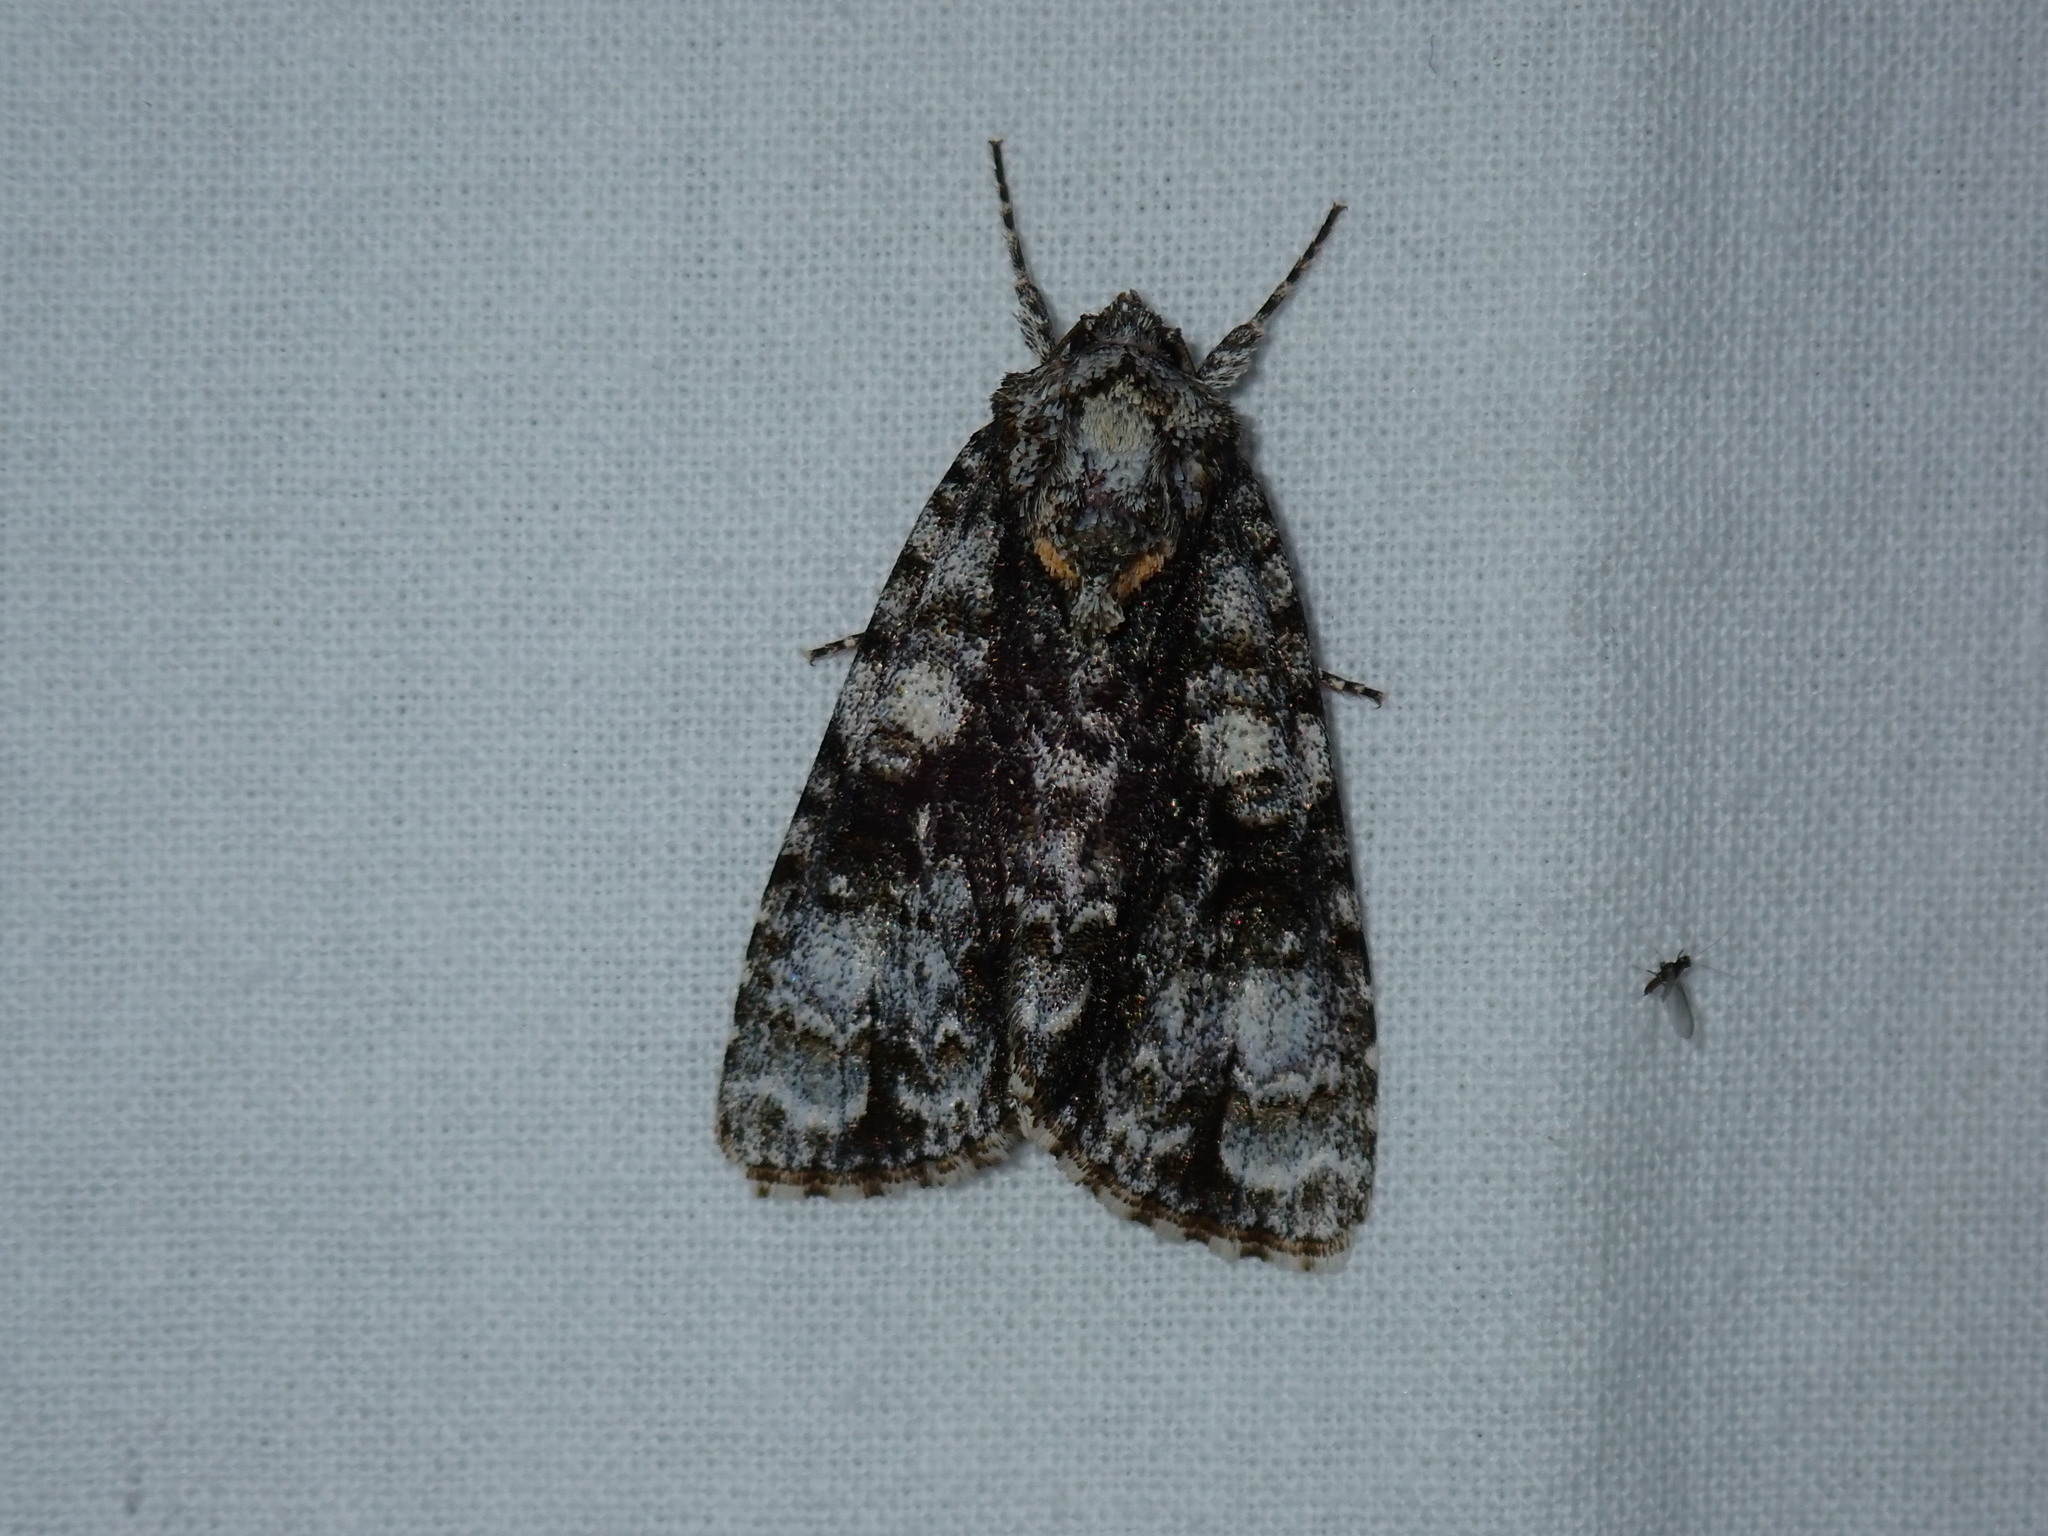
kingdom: Animalia
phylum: Arthropoda
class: Insecta
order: Lepidoptera
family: Noctuidae
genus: Acronicta
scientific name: Acronicta superans
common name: Splendid dagger
